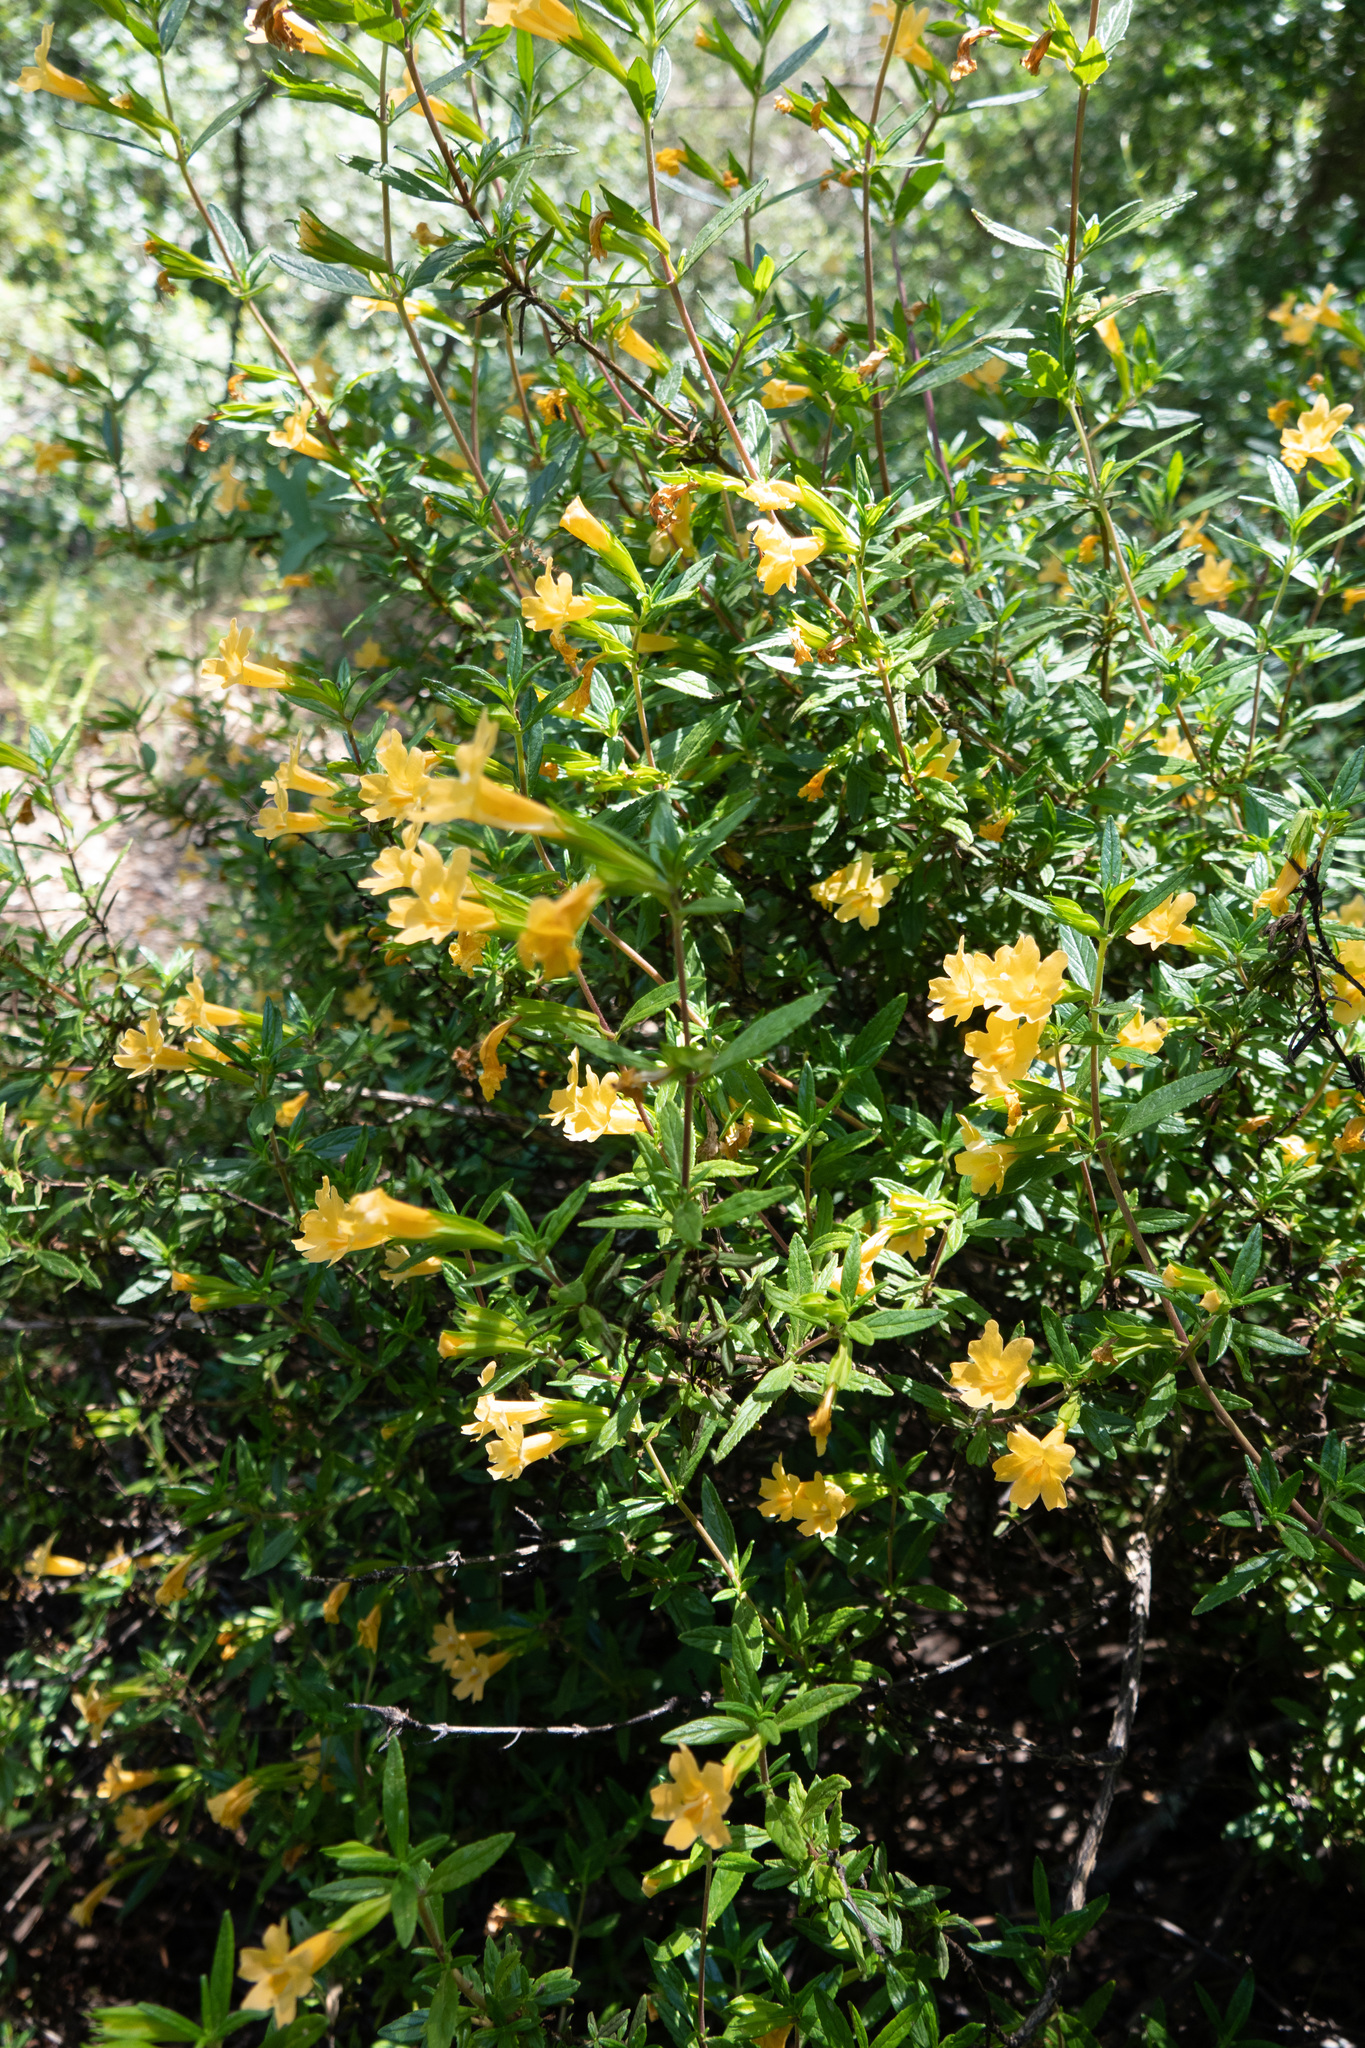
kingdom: Plantae
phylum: Tracheophyta
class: Magnoliopsida
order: Lamiales
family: Phrymaceae
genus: Diplacus
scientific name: Diplacus aurantiacus
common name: Bush monkey-flower
